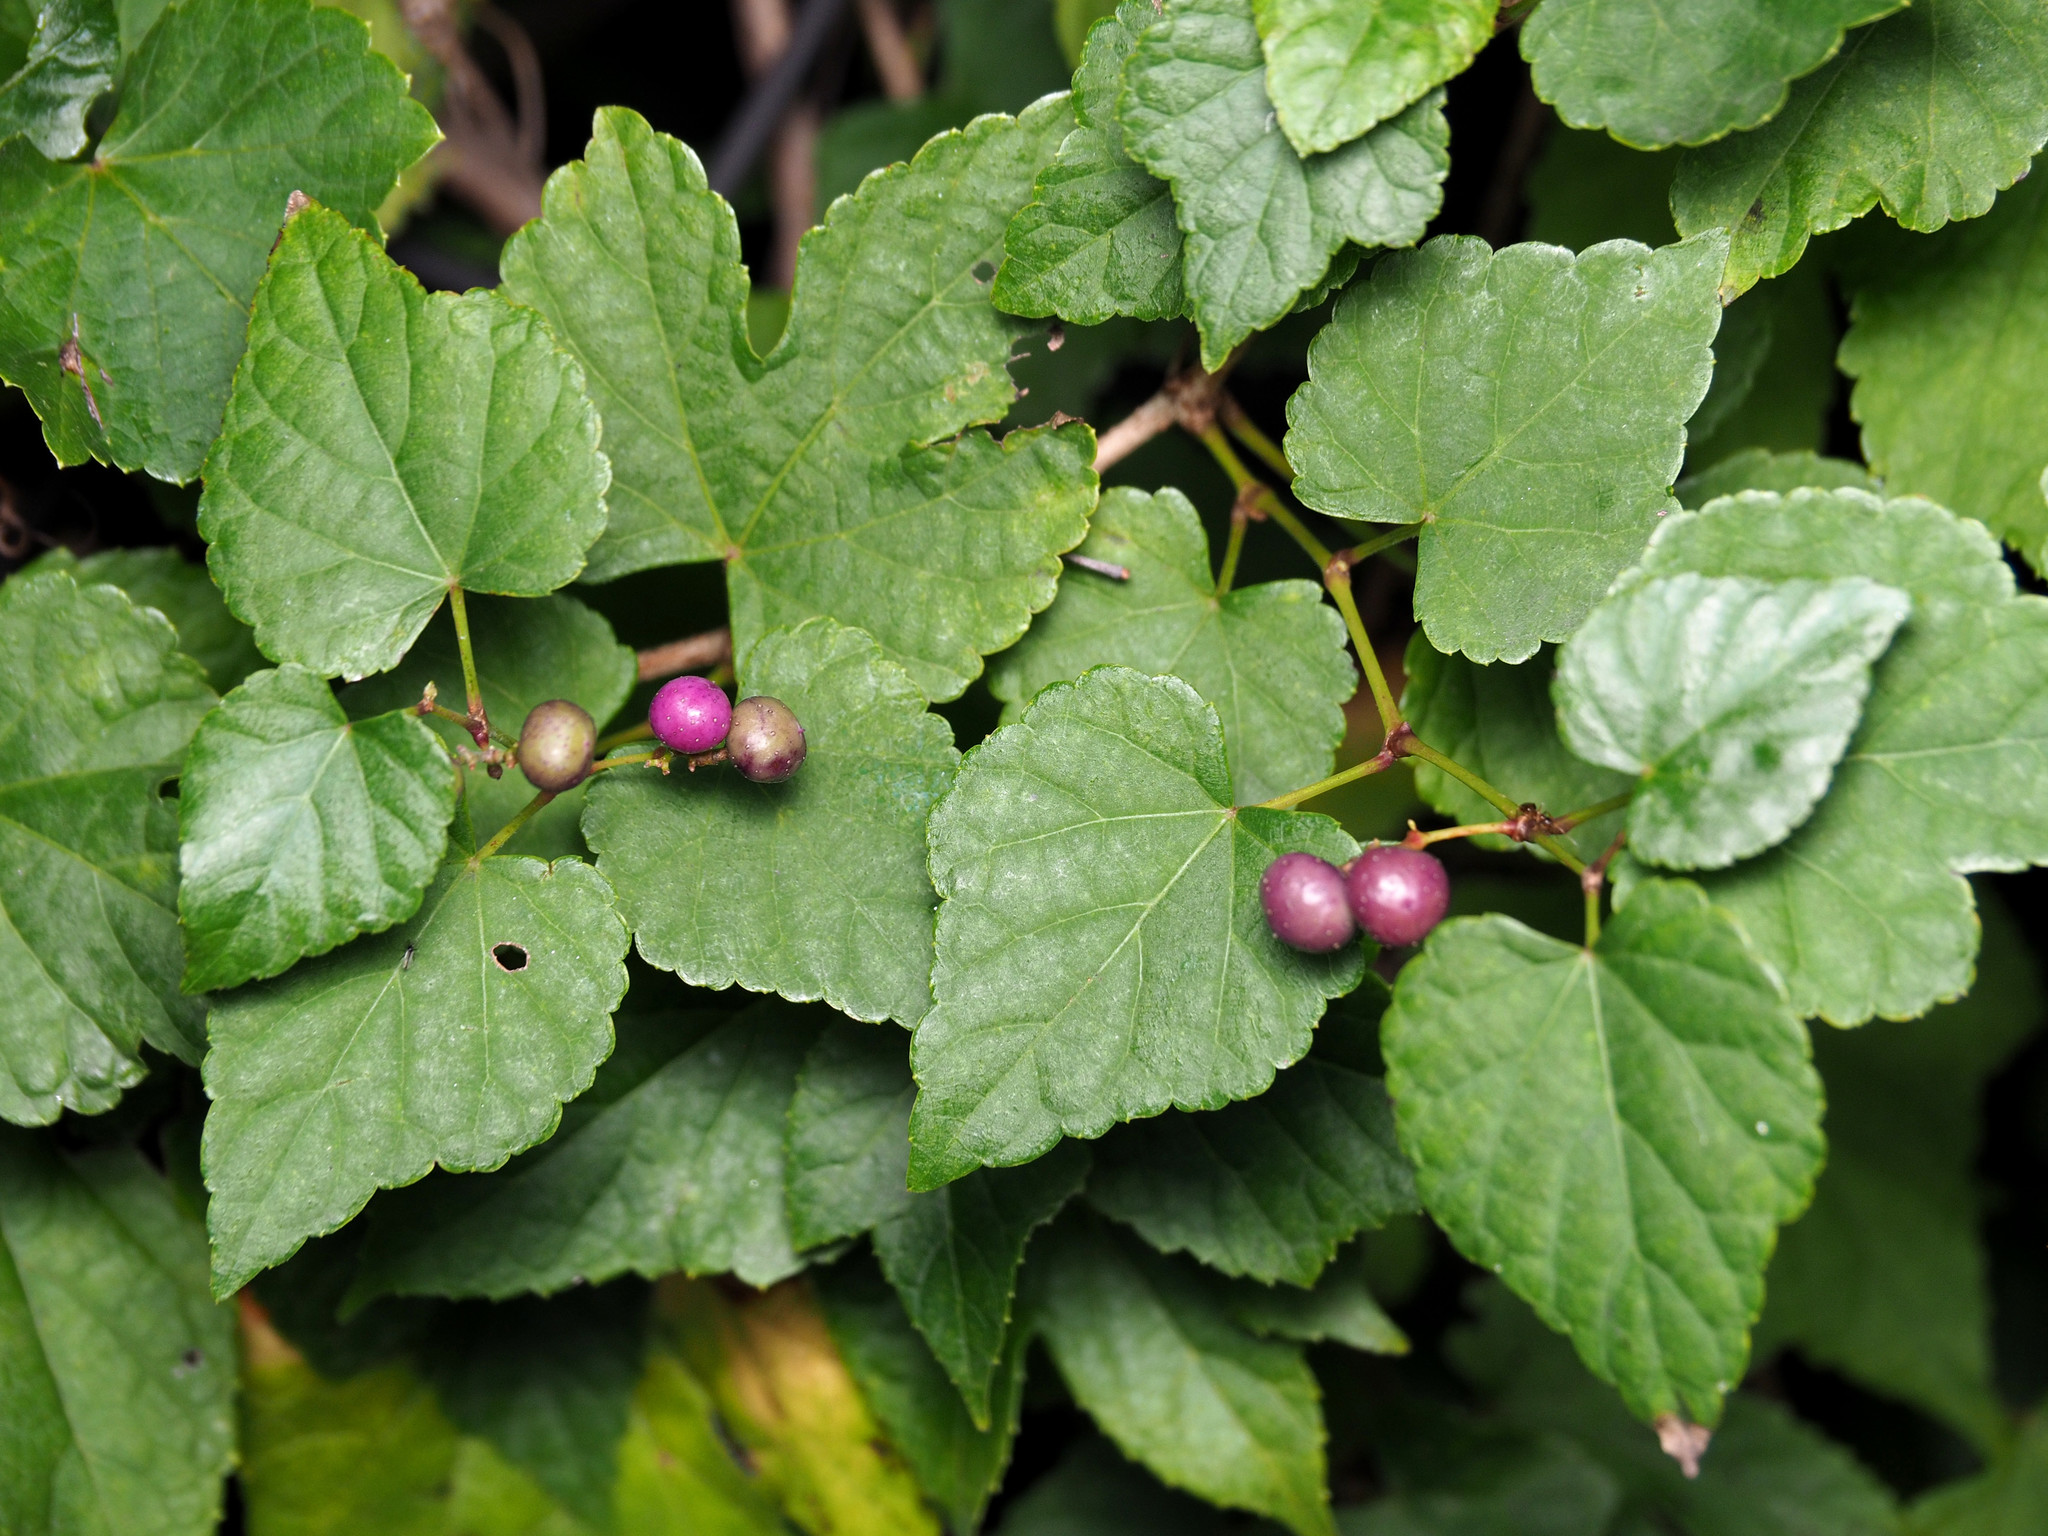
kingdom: Plantae
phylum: Tracheophyta
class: Magnoliopsida
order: Vitales
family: Vitaceae
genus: Ampelopsis
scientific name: Ampelopsis glandulosa
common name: Amur peppervine
